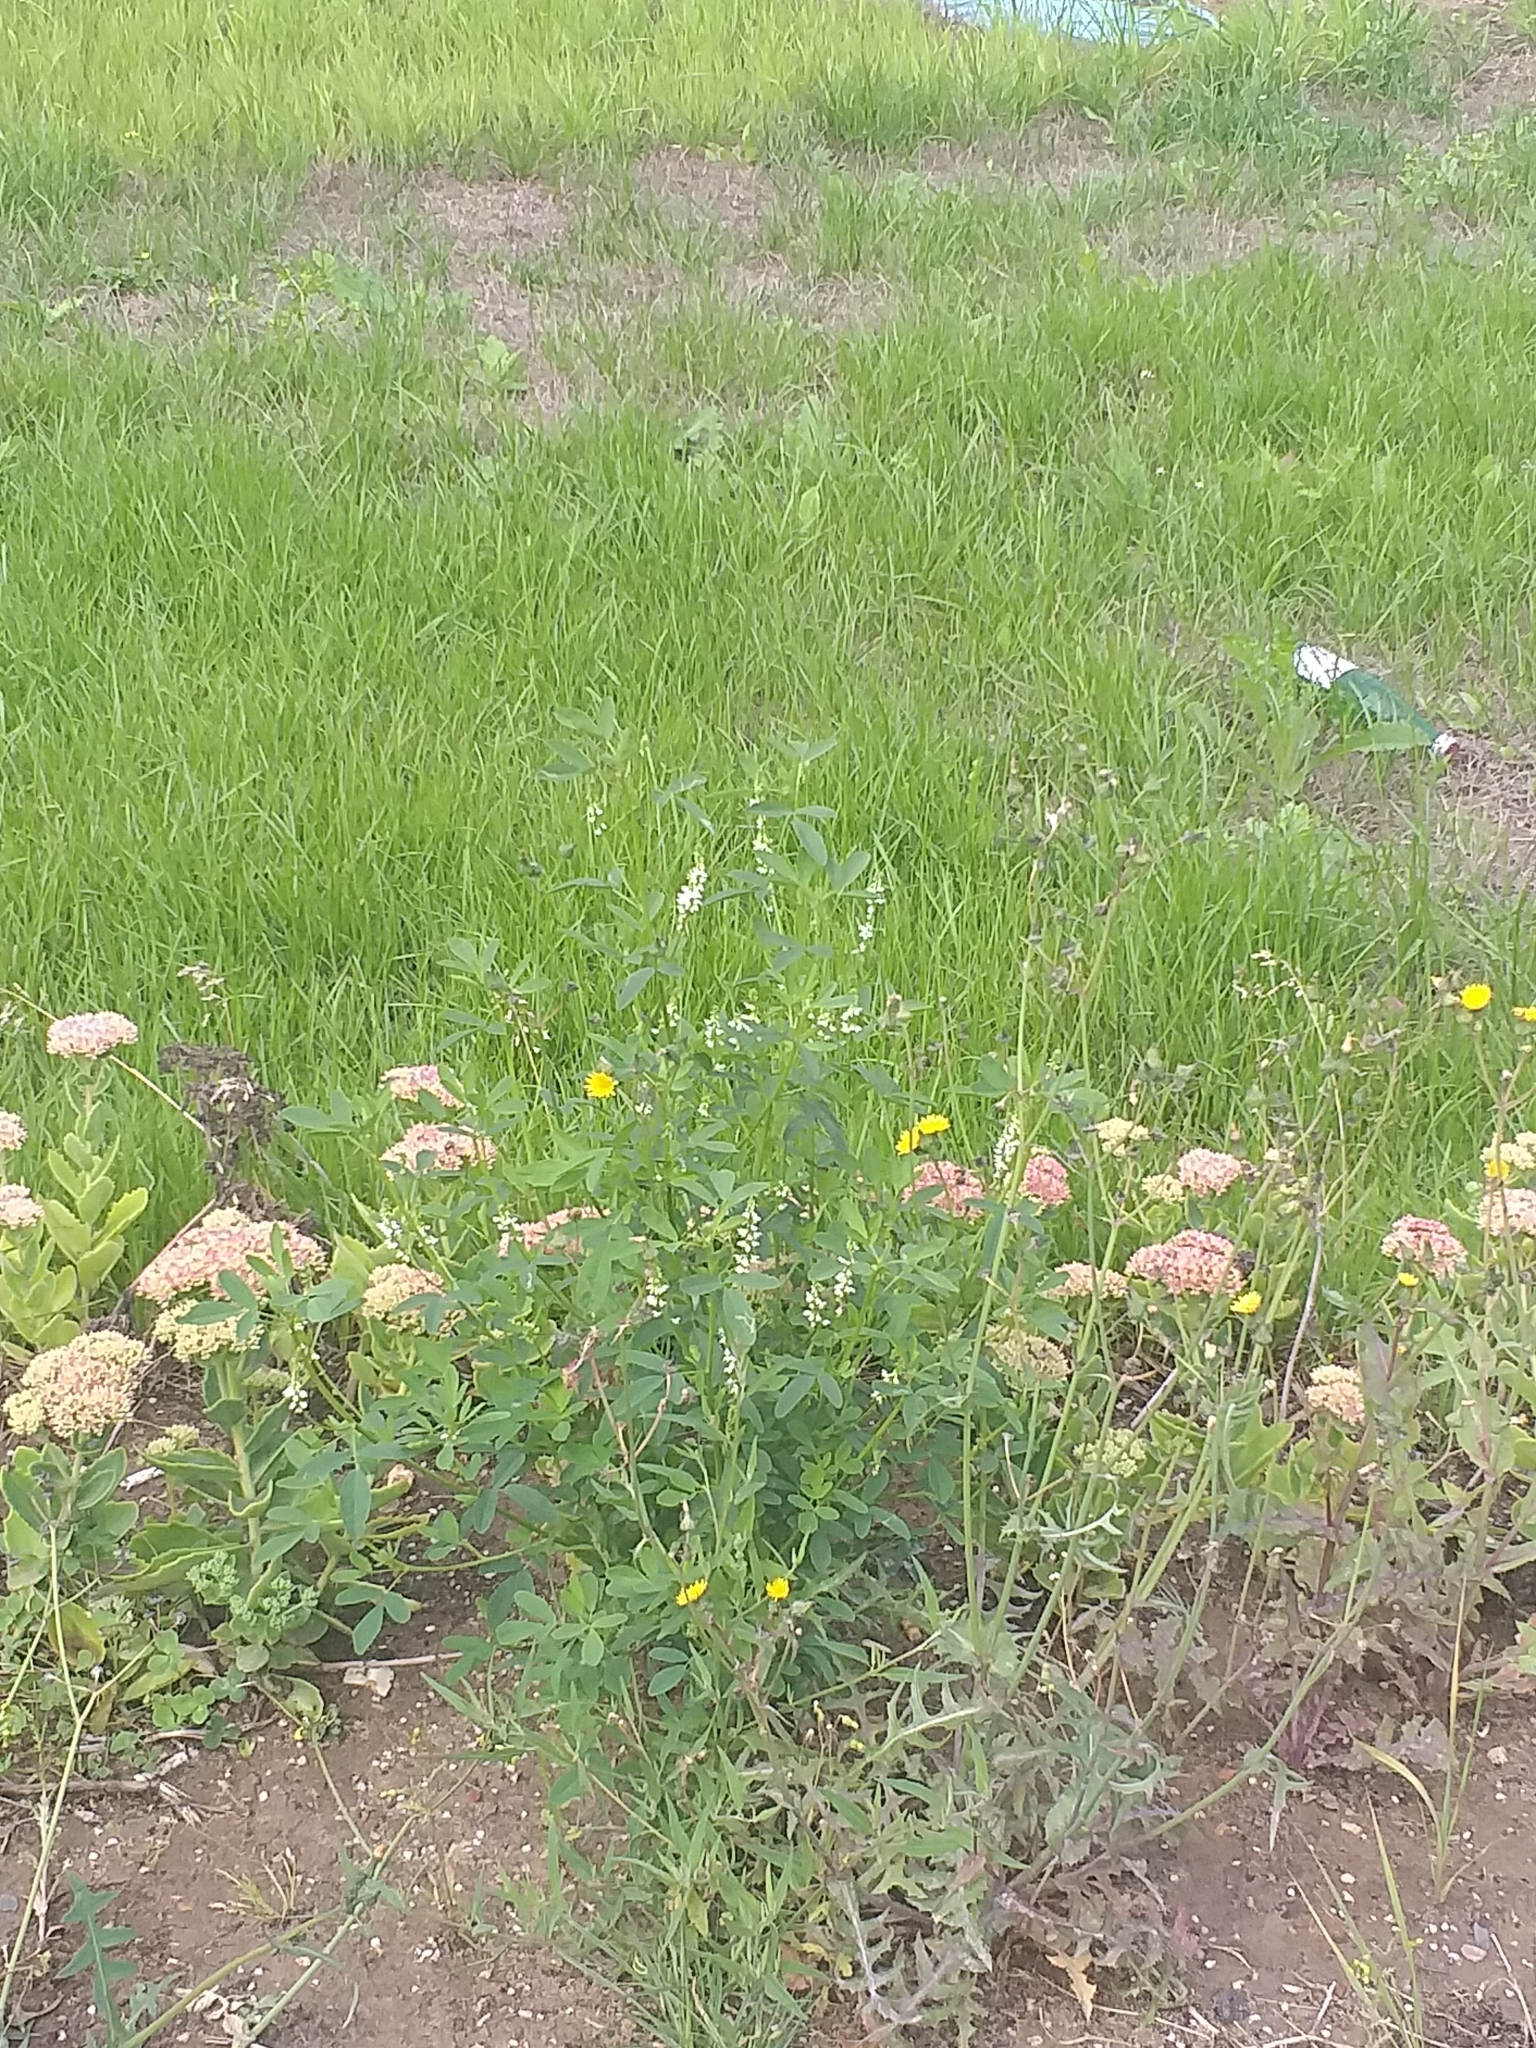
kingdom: Plantae
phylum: Tracheophyta
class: Magnoliopsida
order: Fabales
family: Fabaceae
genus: Melilotus
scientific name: Melilotus albus
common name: White melilot
